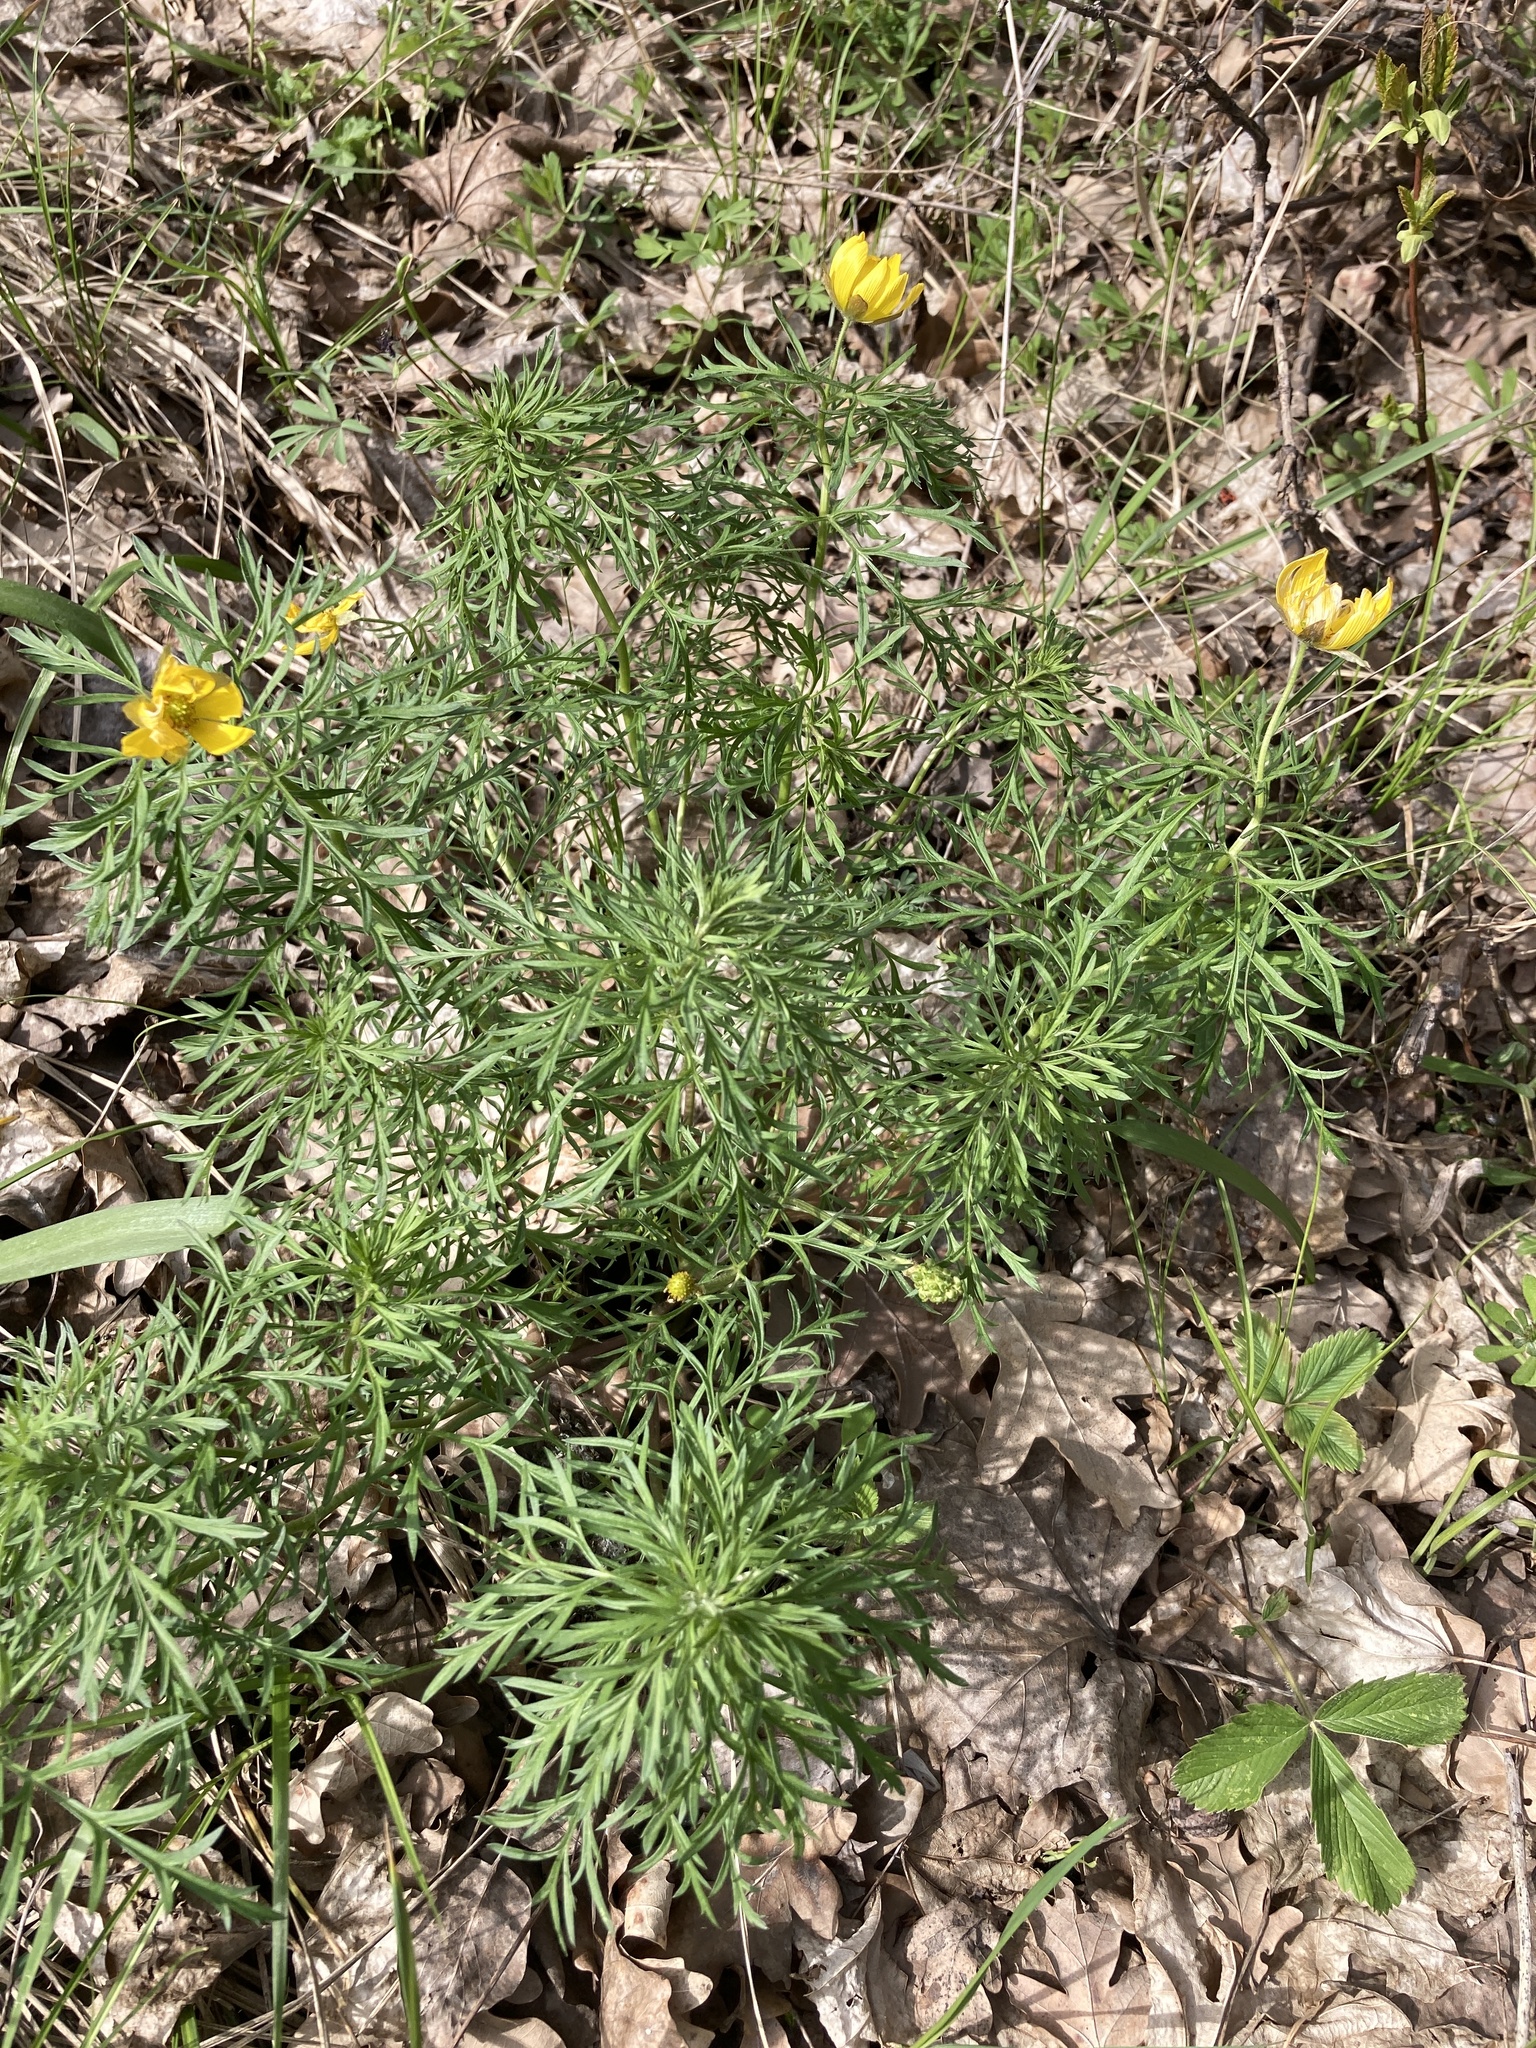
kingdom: Plantae
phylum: Tracheophyta
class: Magnoliopsida
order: Ranunculales
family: Ranunculaceae
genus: Adonis
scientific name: Adonis volgensis
